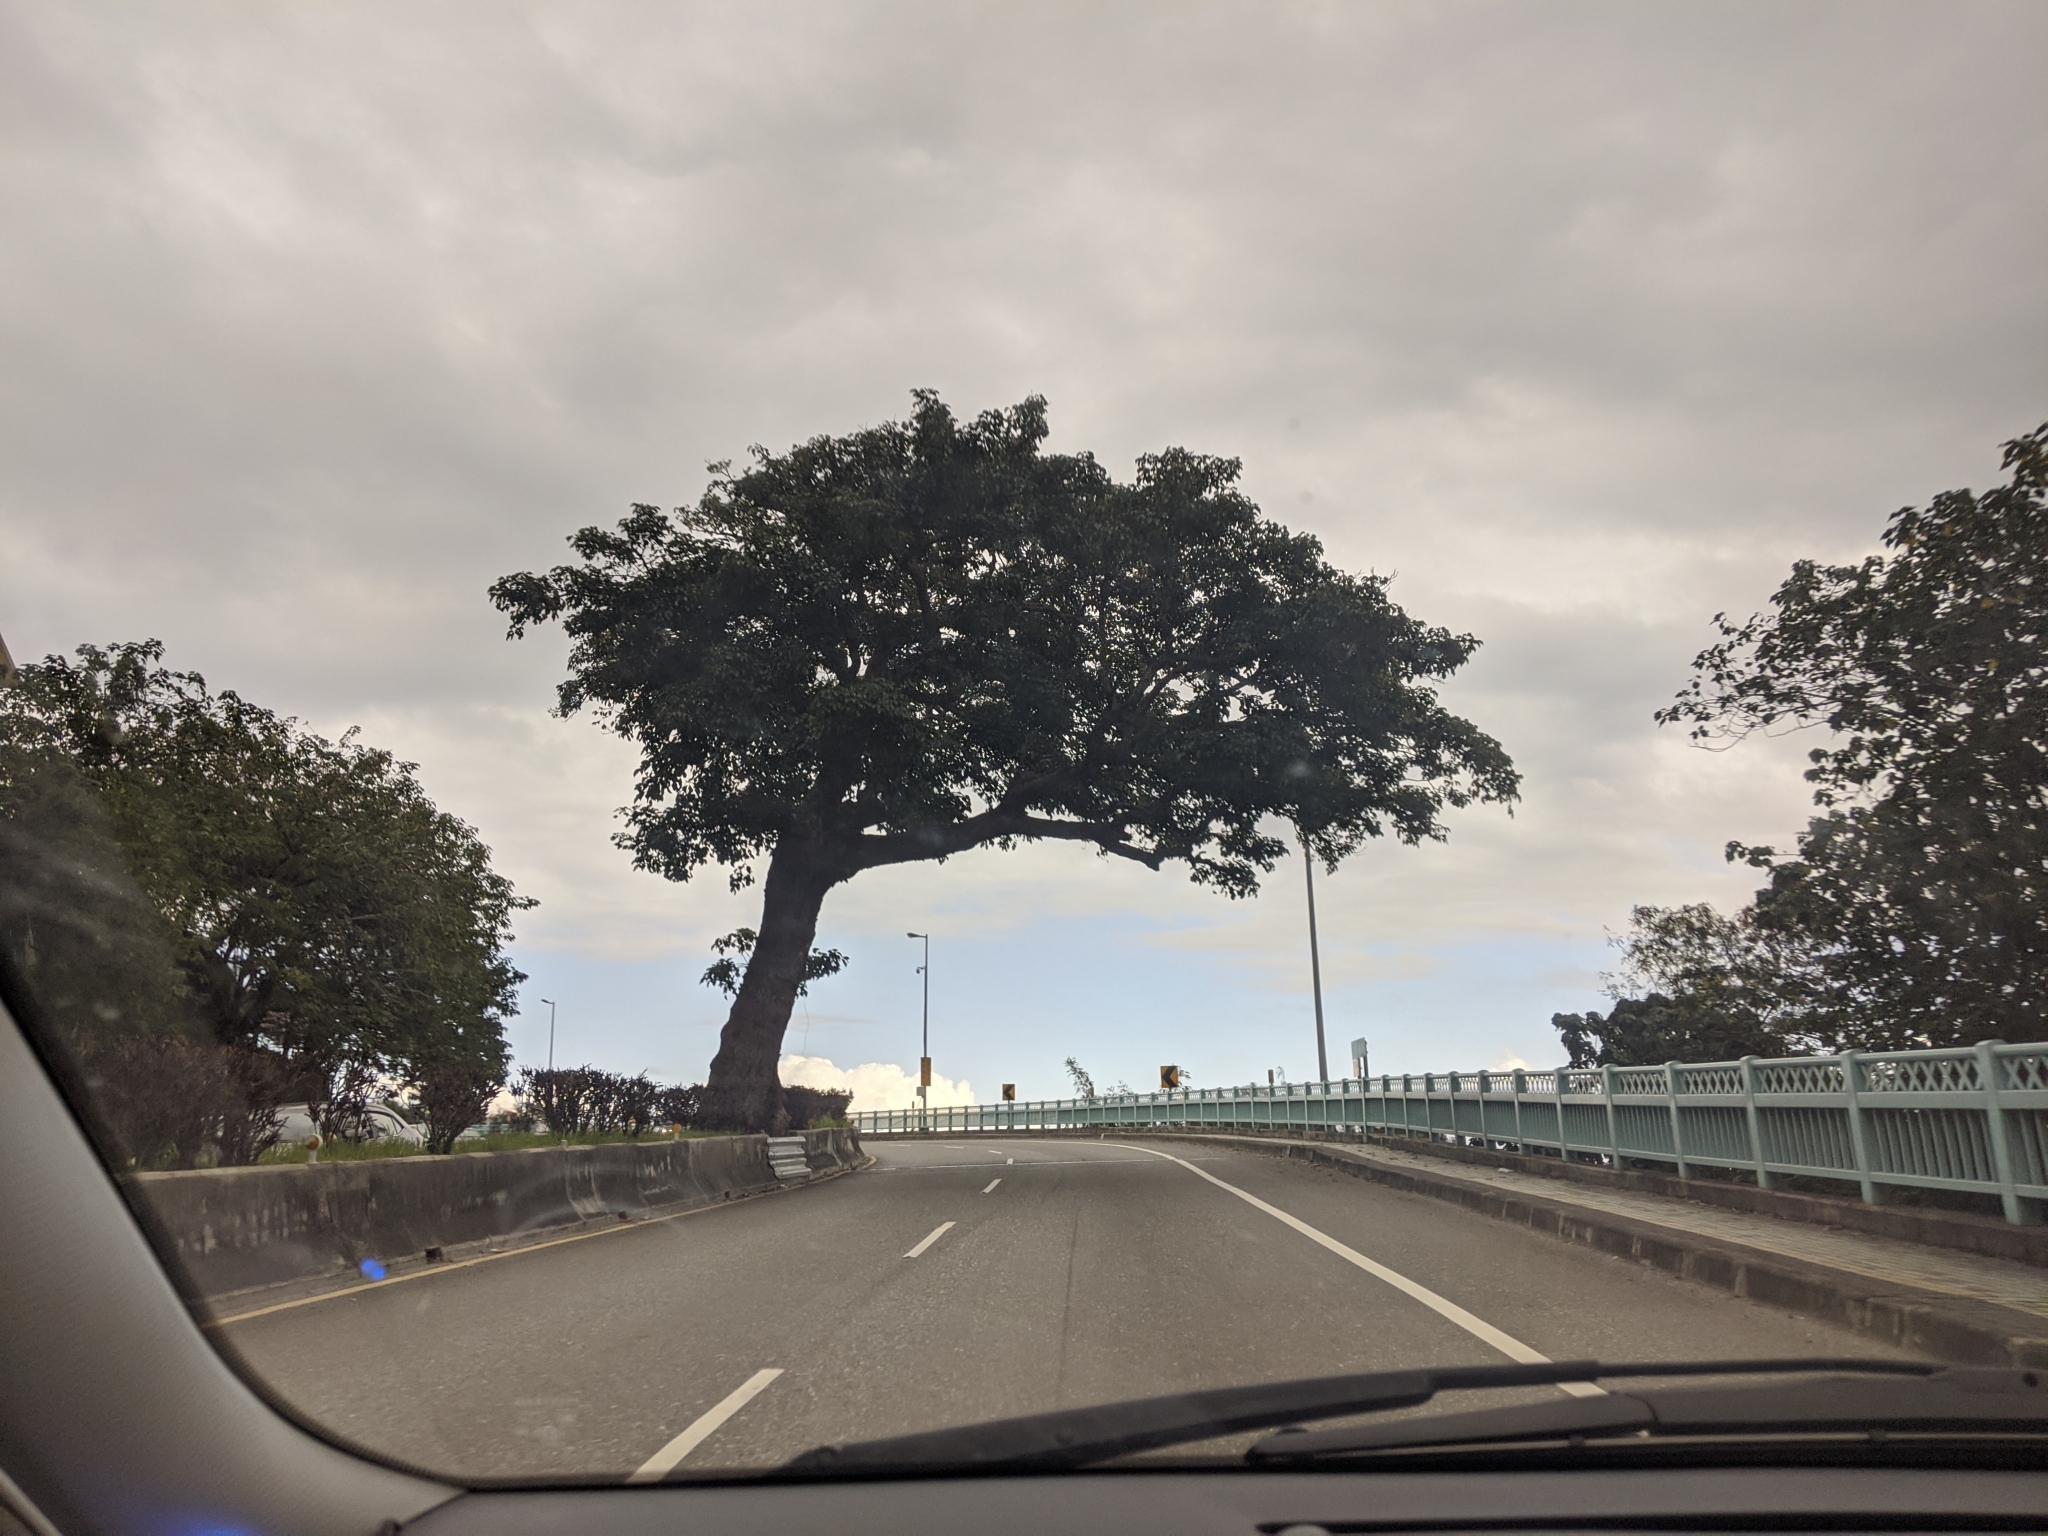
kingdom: Plantae
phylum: Tracheophyta
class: Magnoliopsida
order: Malpighiales
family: Phyllanthaceae
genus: Bischofia
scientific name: Bischofia javanica
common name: Javanese bishopwood
